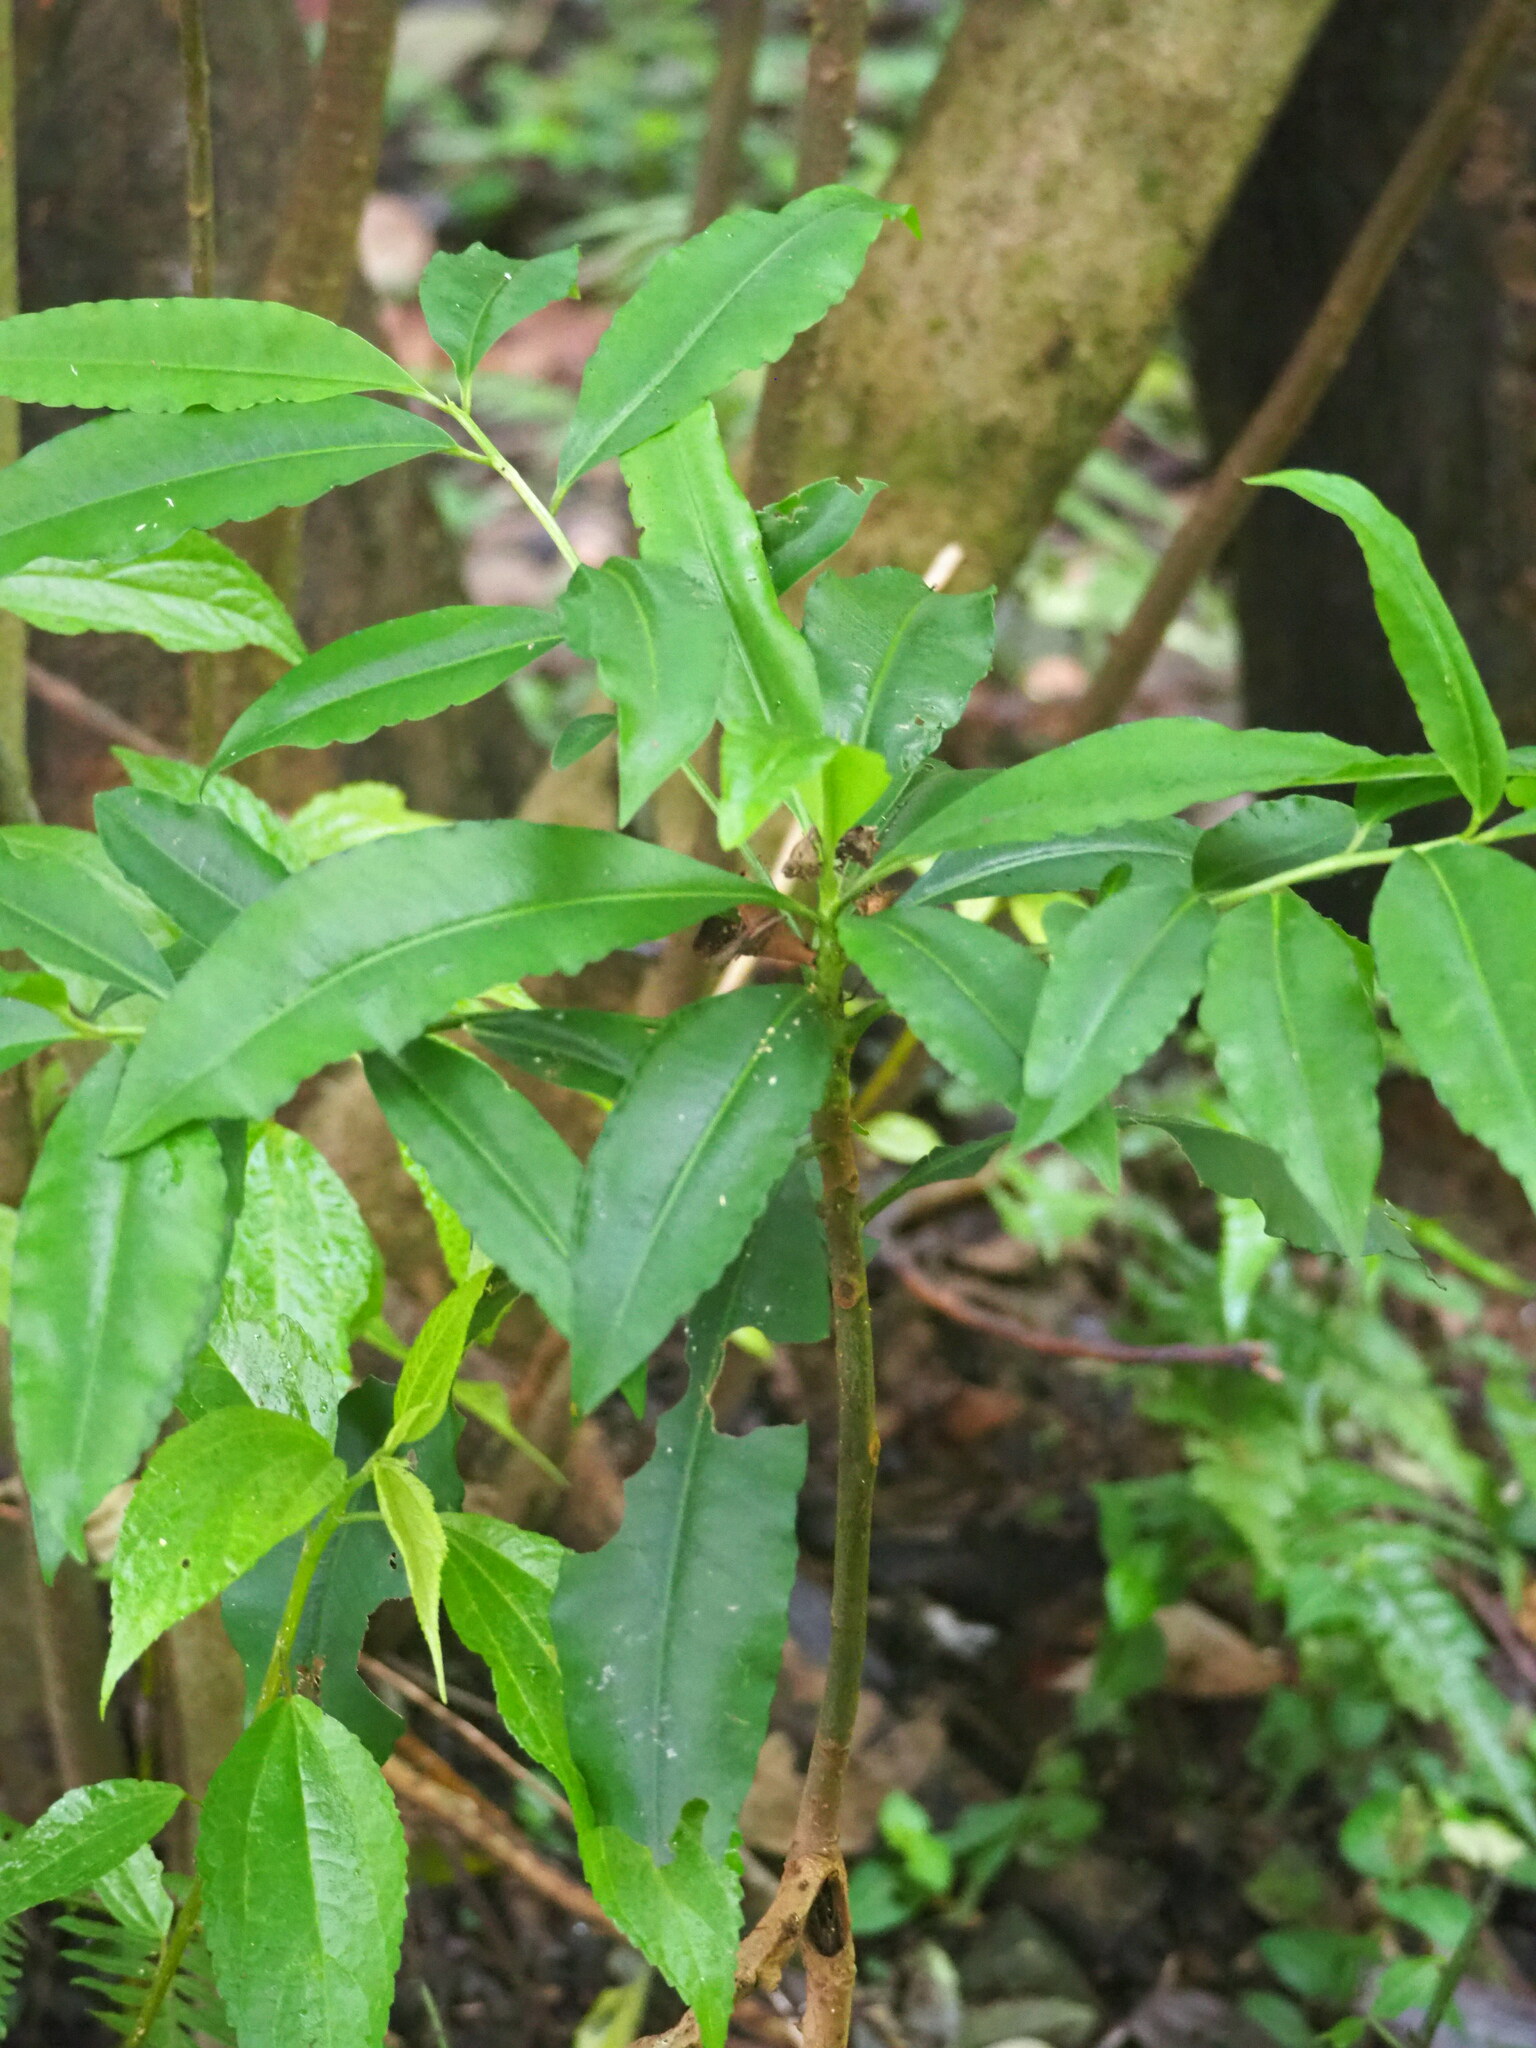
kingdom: Plantae
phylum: Tracheophyta
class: Magnoliopsida
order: Ericales
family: Primulaceae
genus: Ardisia
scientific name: Ardisia polysticta
